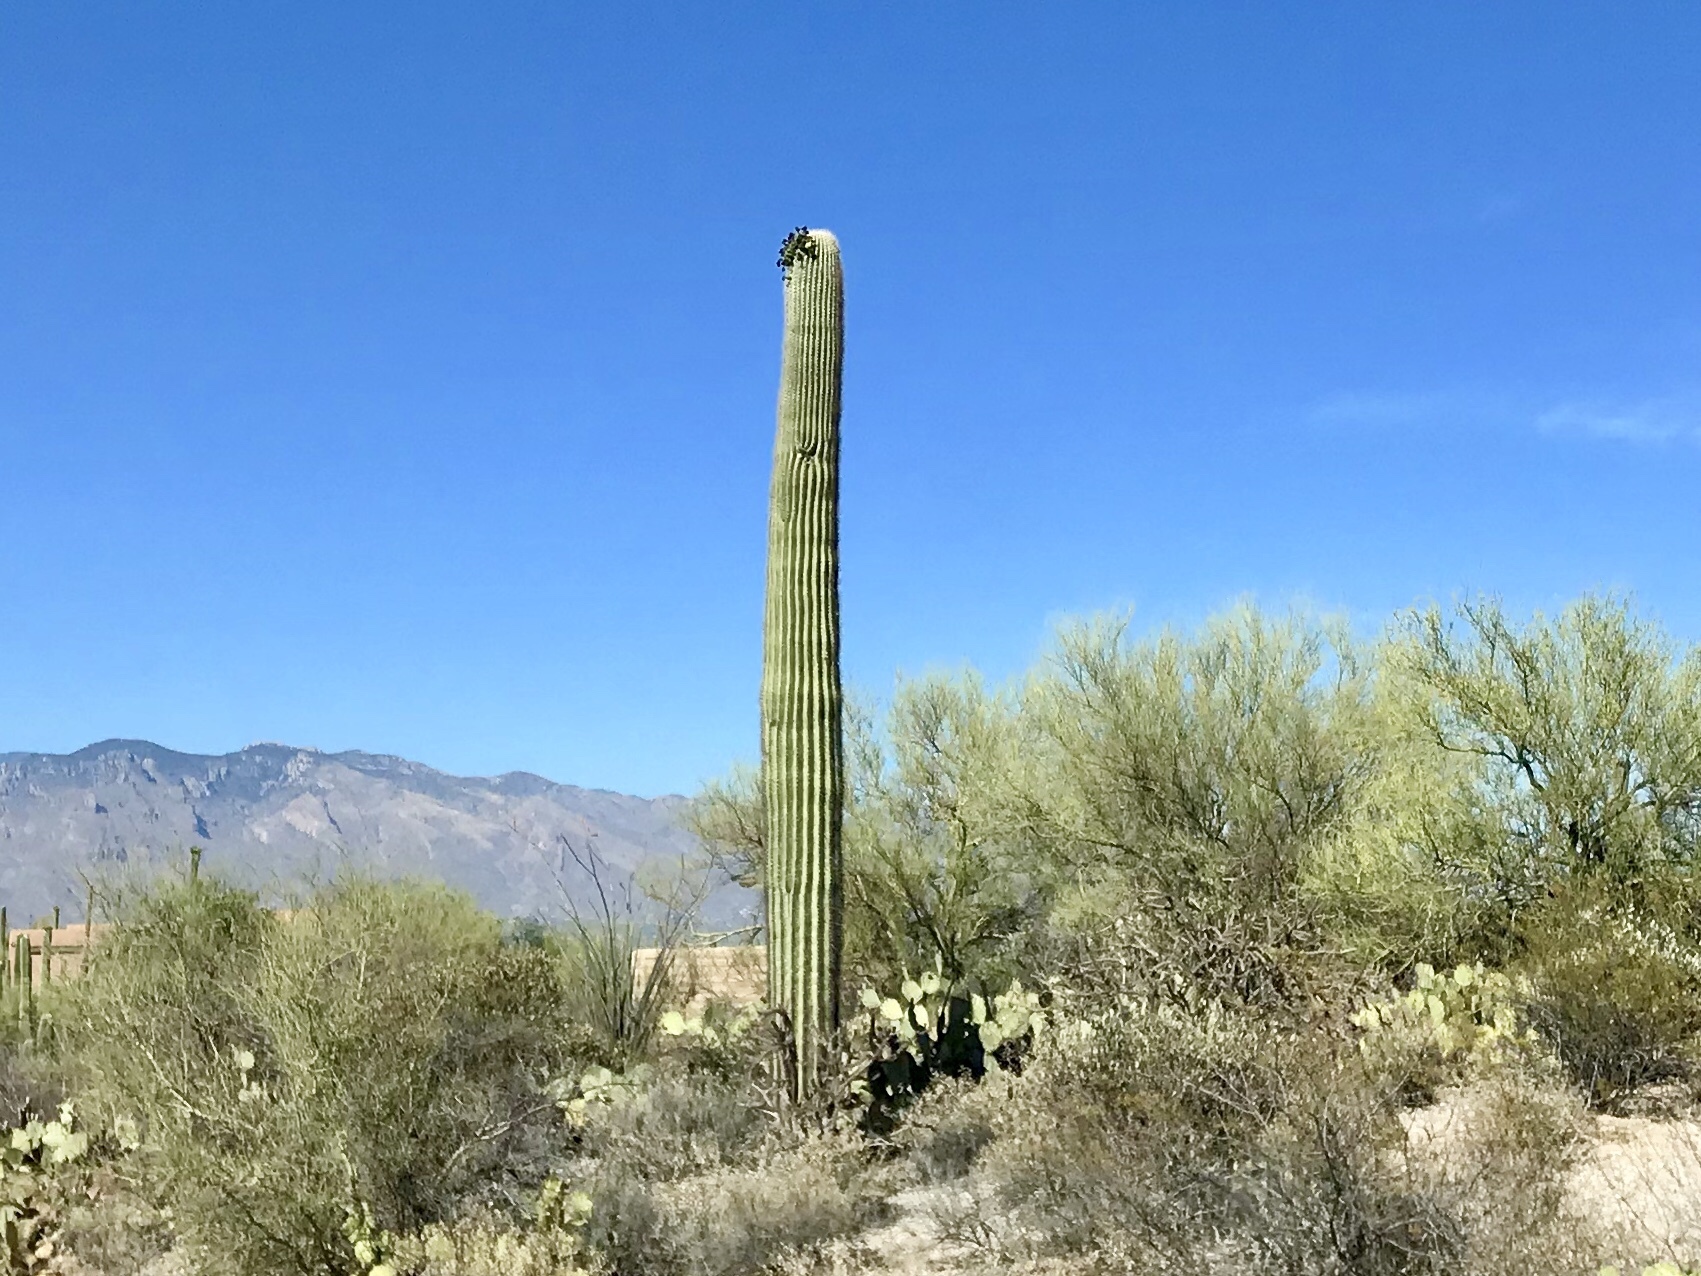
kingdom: Plantae
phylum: Tracheophyta
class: Magnoliopsida
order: Caryophyllales
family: Cactaceae
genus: Carnegiea
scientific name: Carnegiea gigantea
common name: Saguaro
